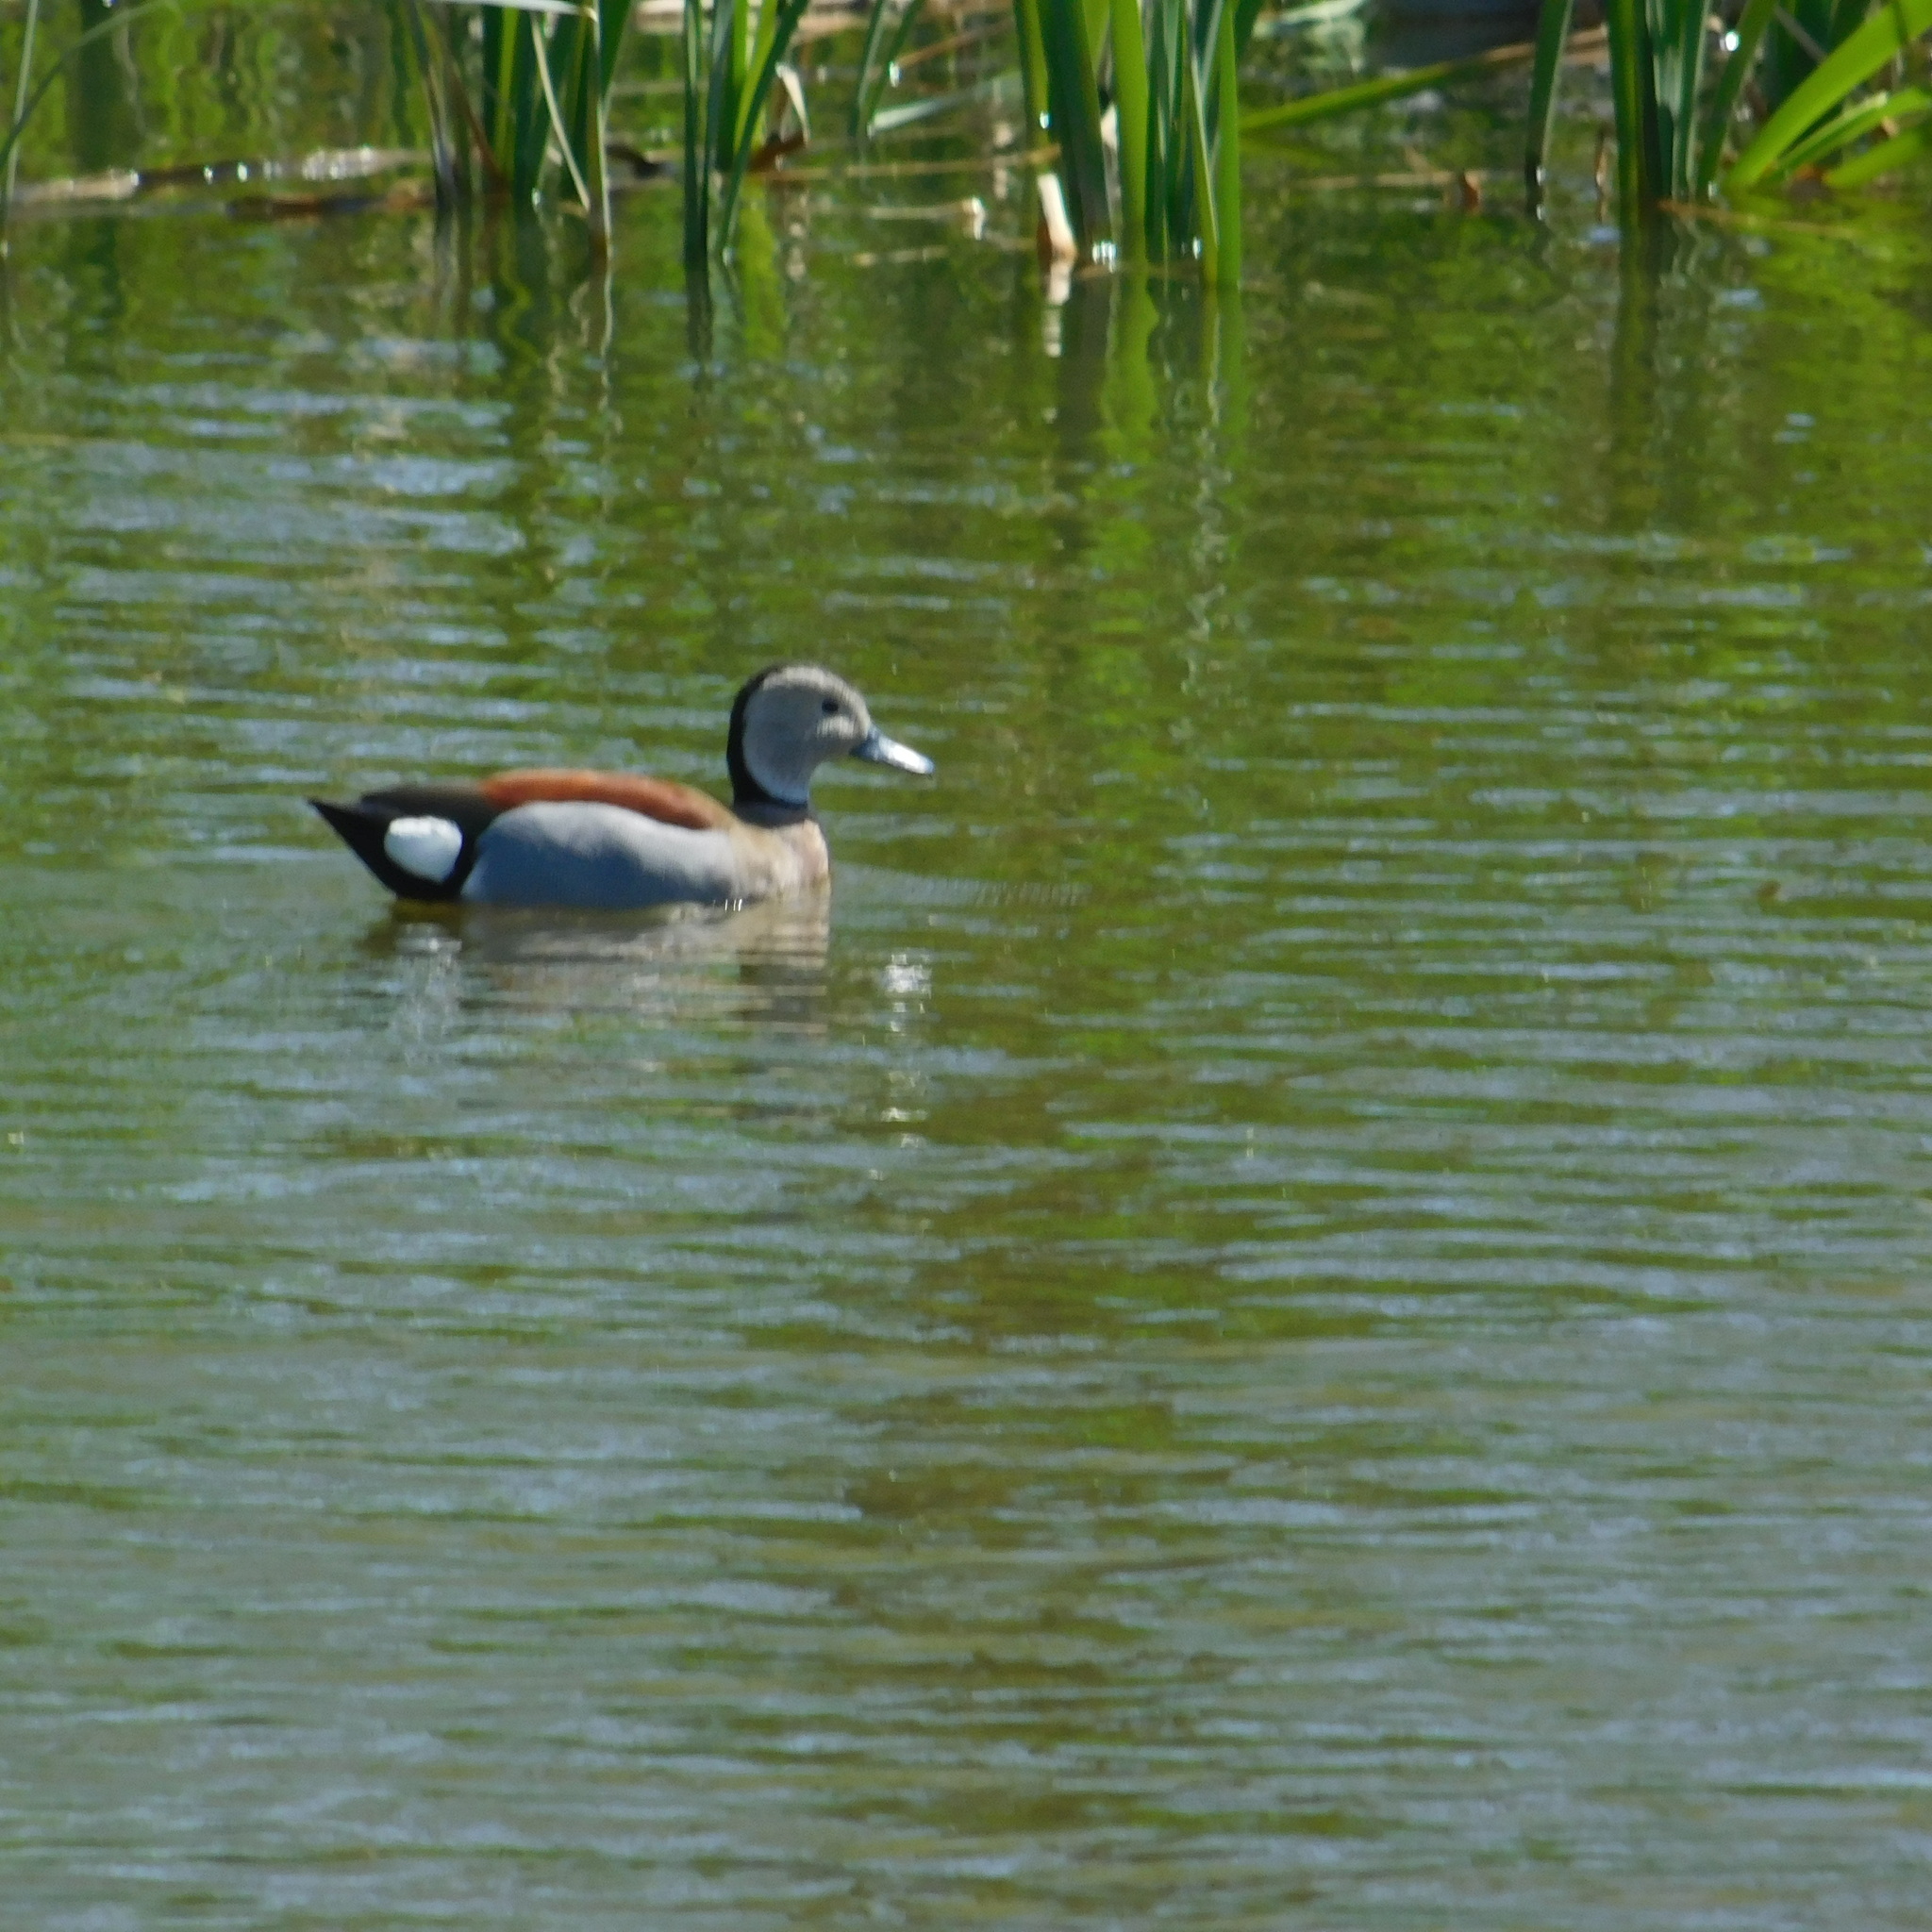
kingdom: Animalia
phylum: Chordata
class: Aves
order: Anseriformes
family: Anatidae
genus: Callonetta
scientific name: Callonetta leucophrys
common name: Ringed teal
